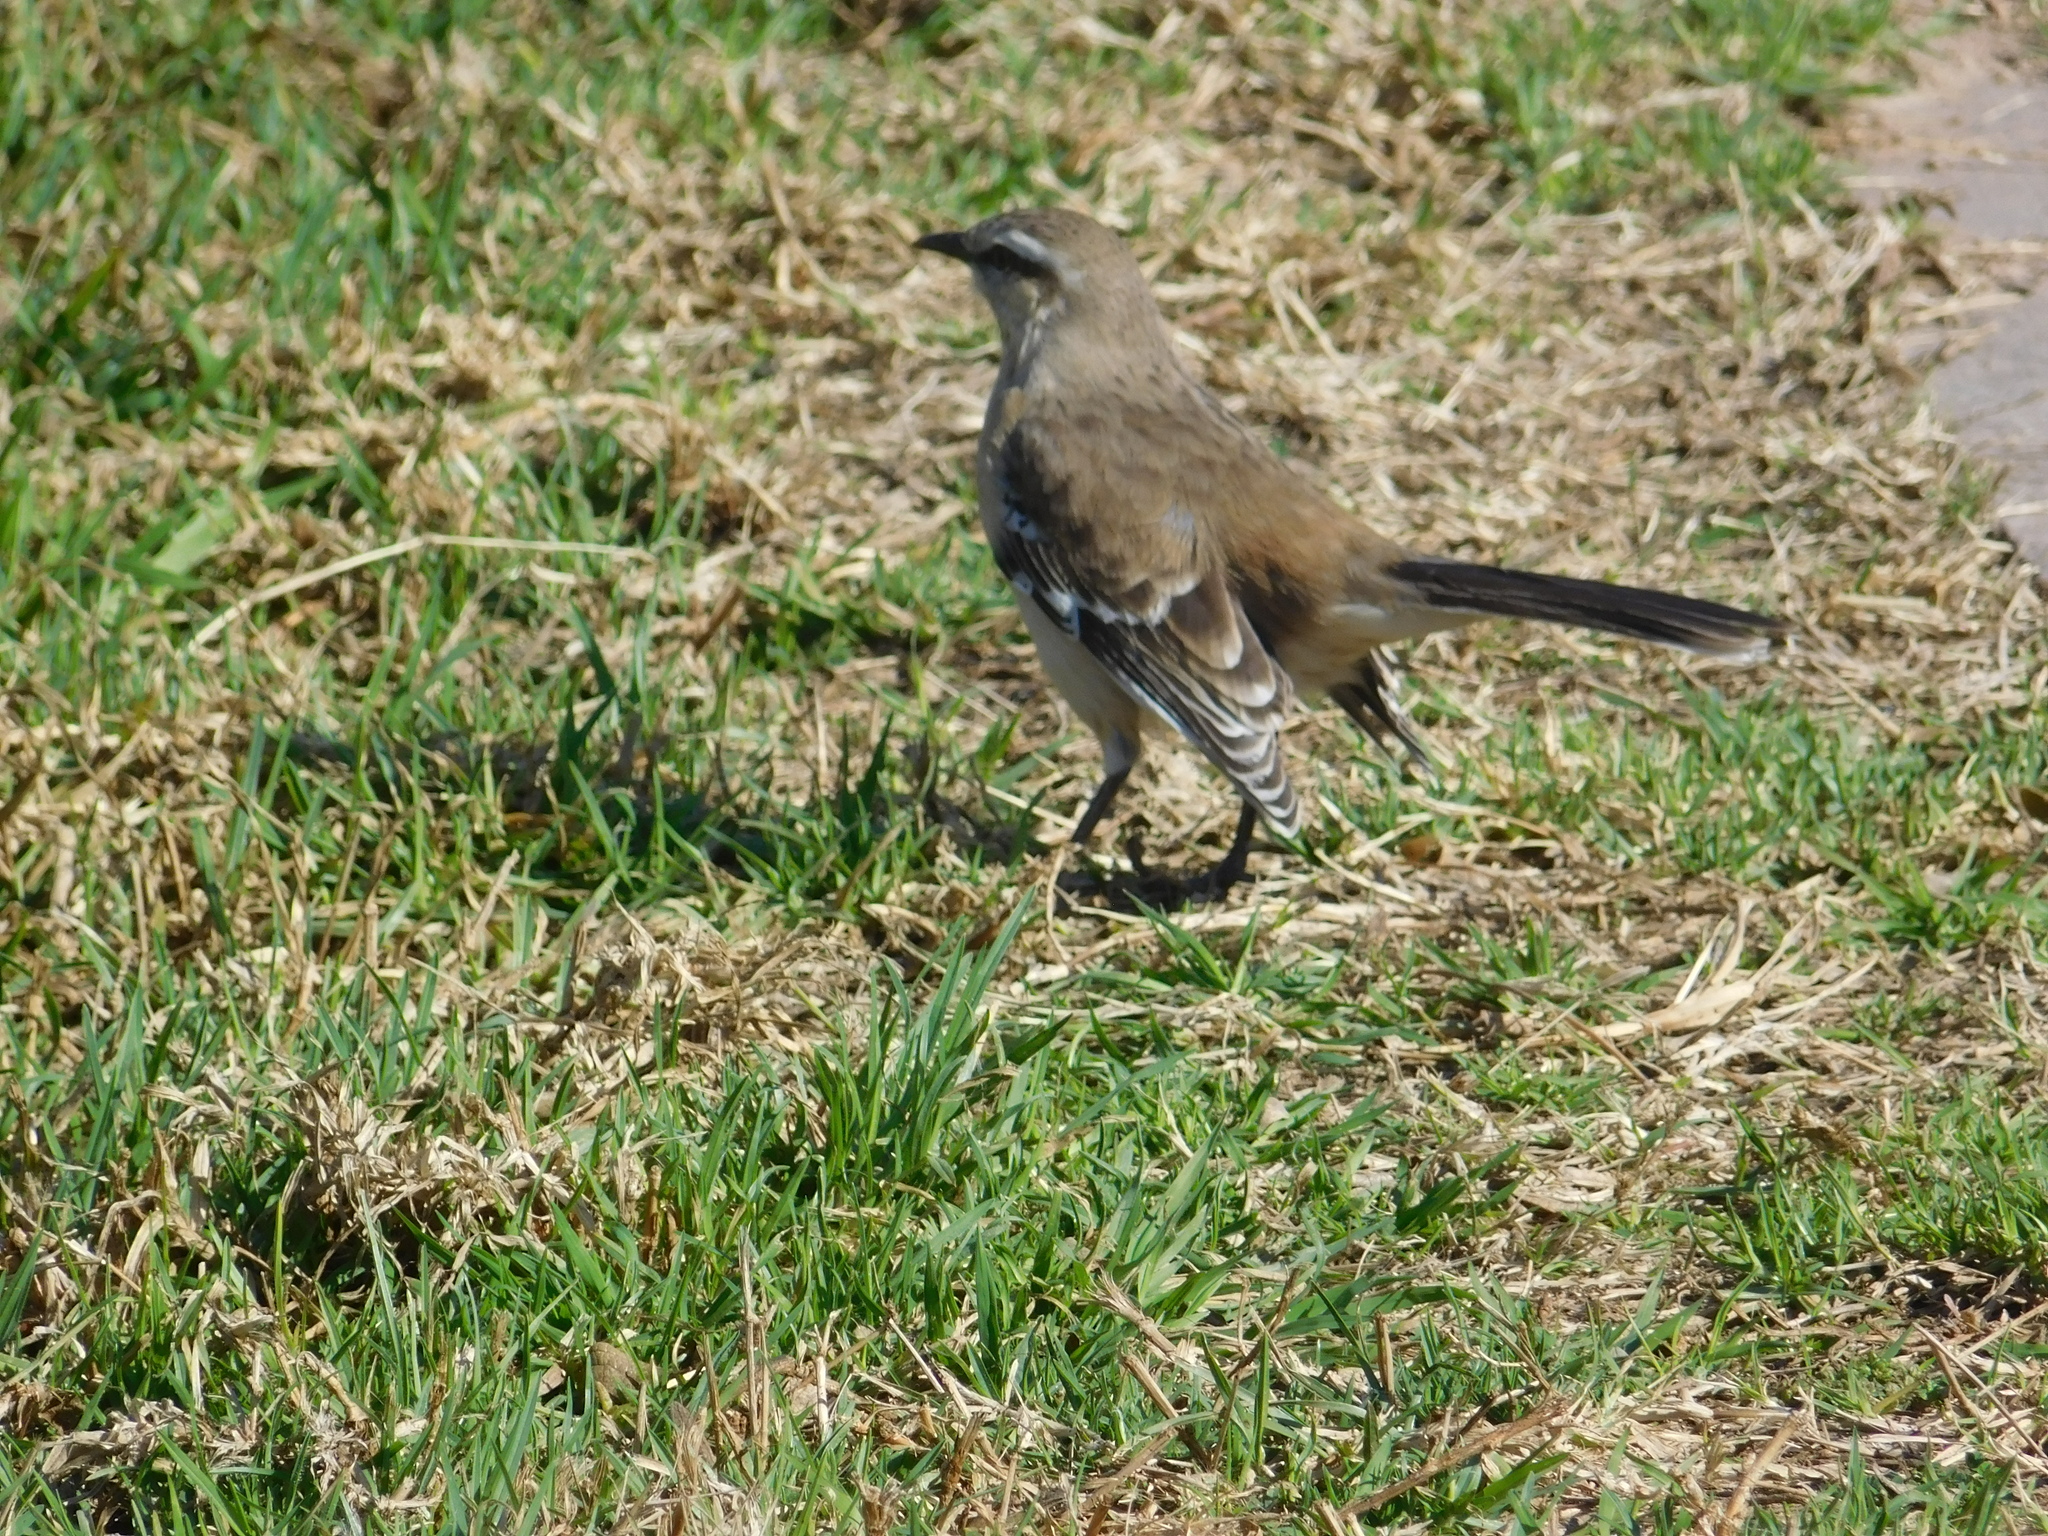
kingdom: Animalia
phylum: Chordata
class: Aves
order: Passeriformes
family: Mimidae
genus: Mimus
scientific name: Mimus saturninus
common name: Chalk-browed mockingbird
